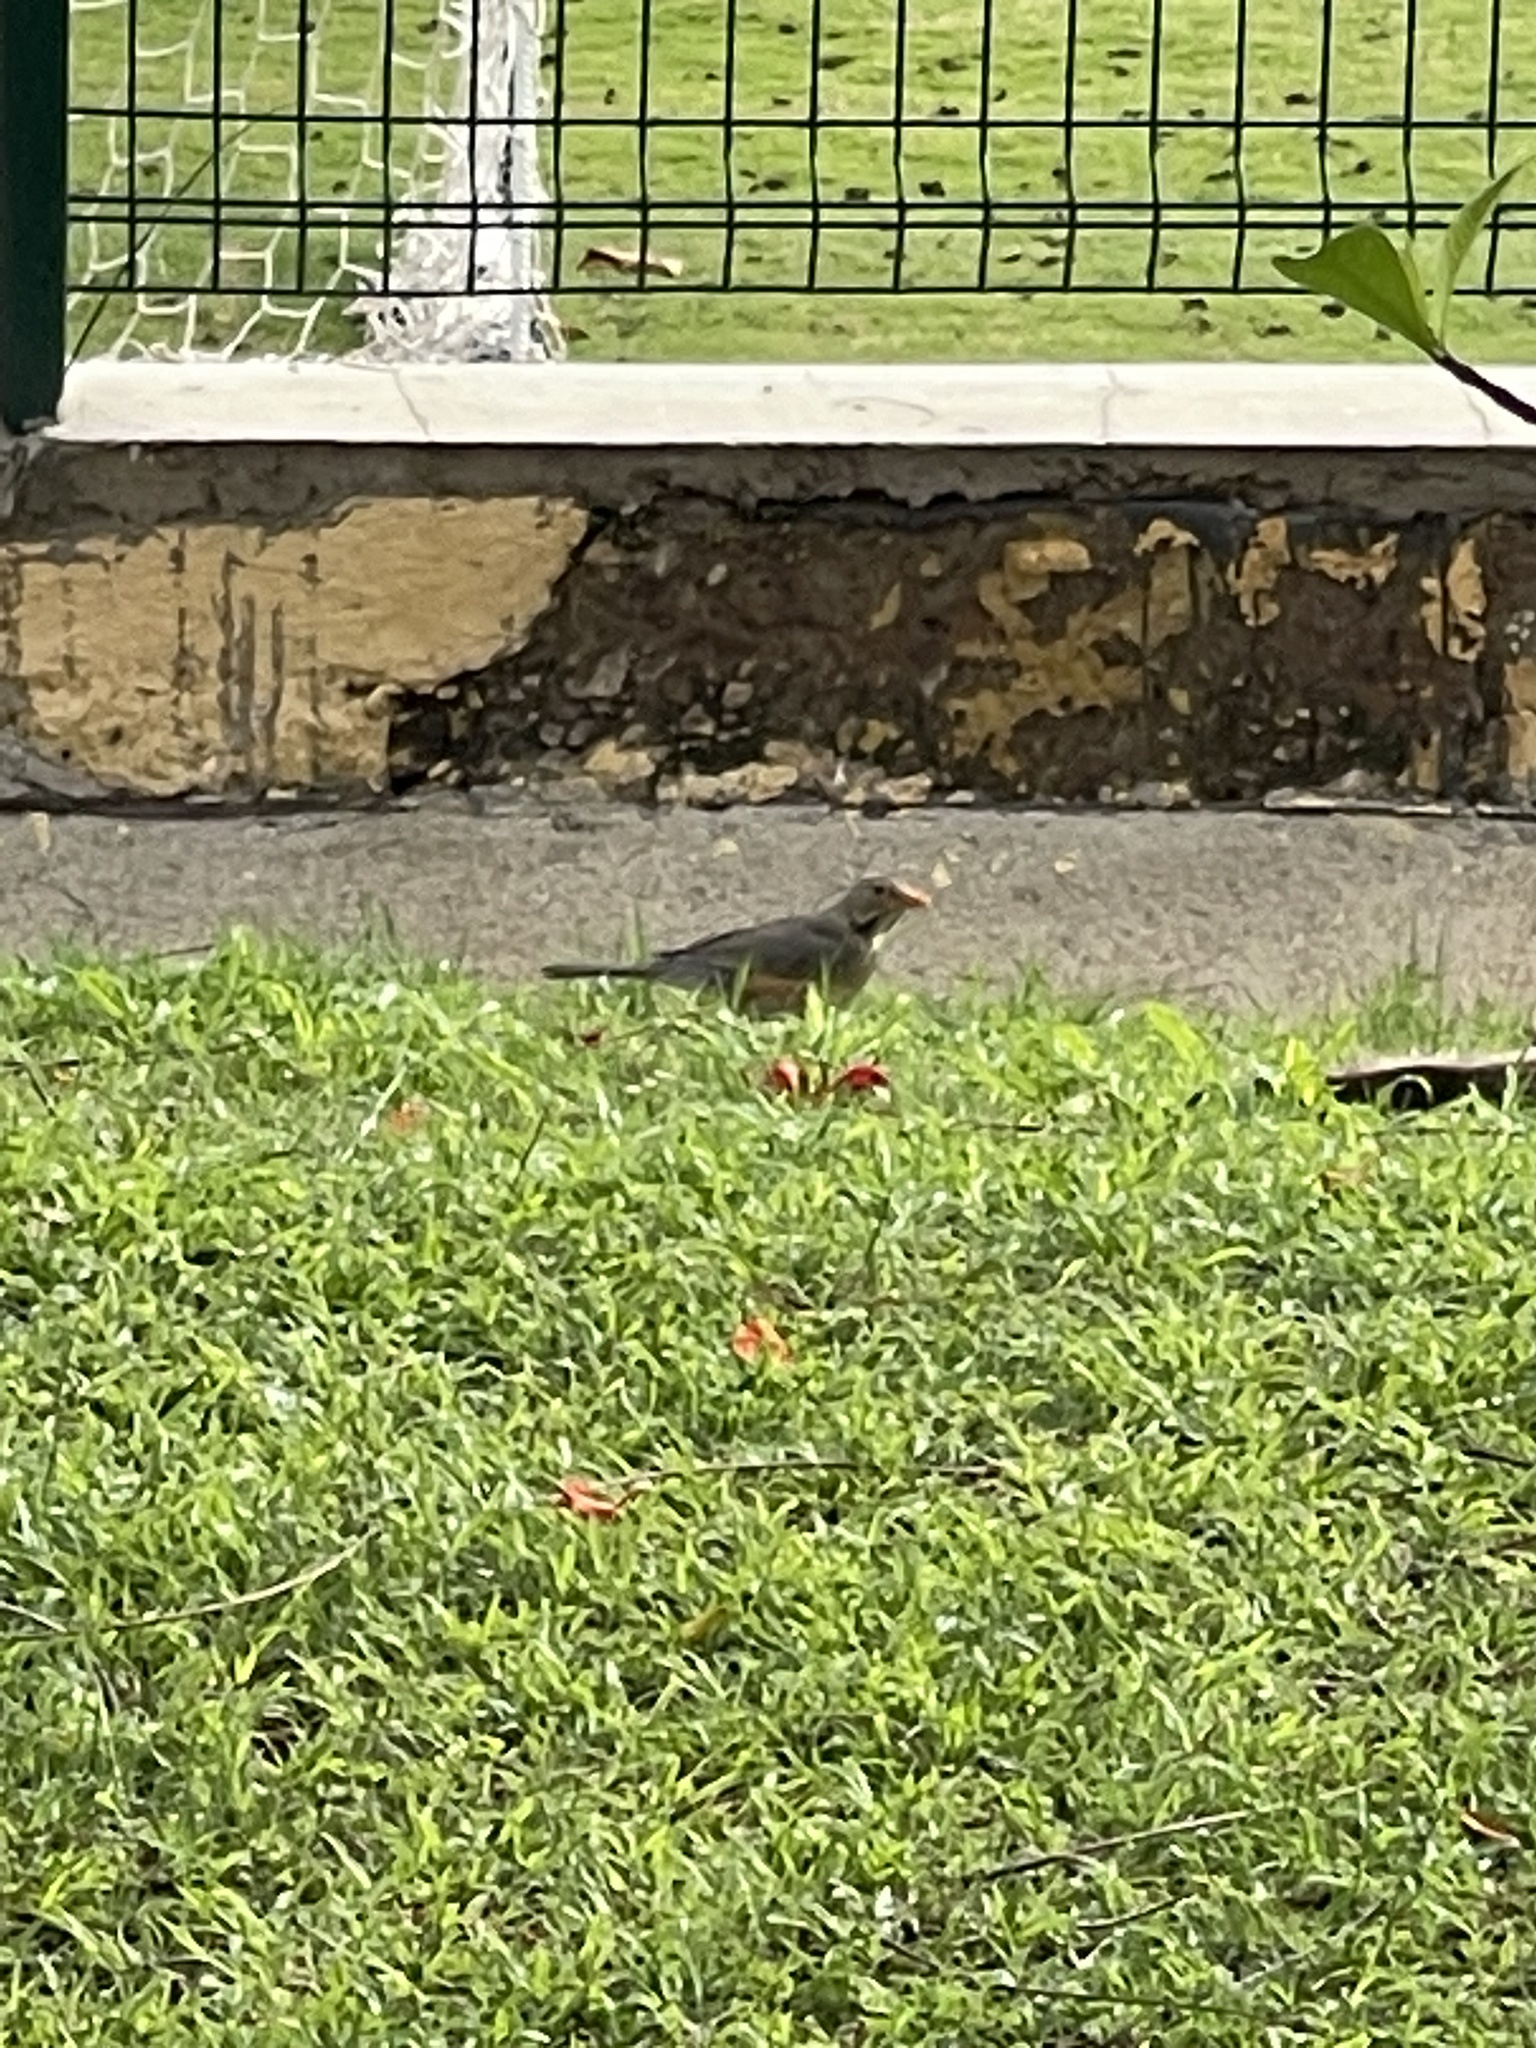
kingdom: Animalia
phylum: Chordata
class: Aves
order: Passeriformes
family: Turdidae
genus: Turdus
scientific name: Turdus libonyana
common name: Kurrichane thrush
